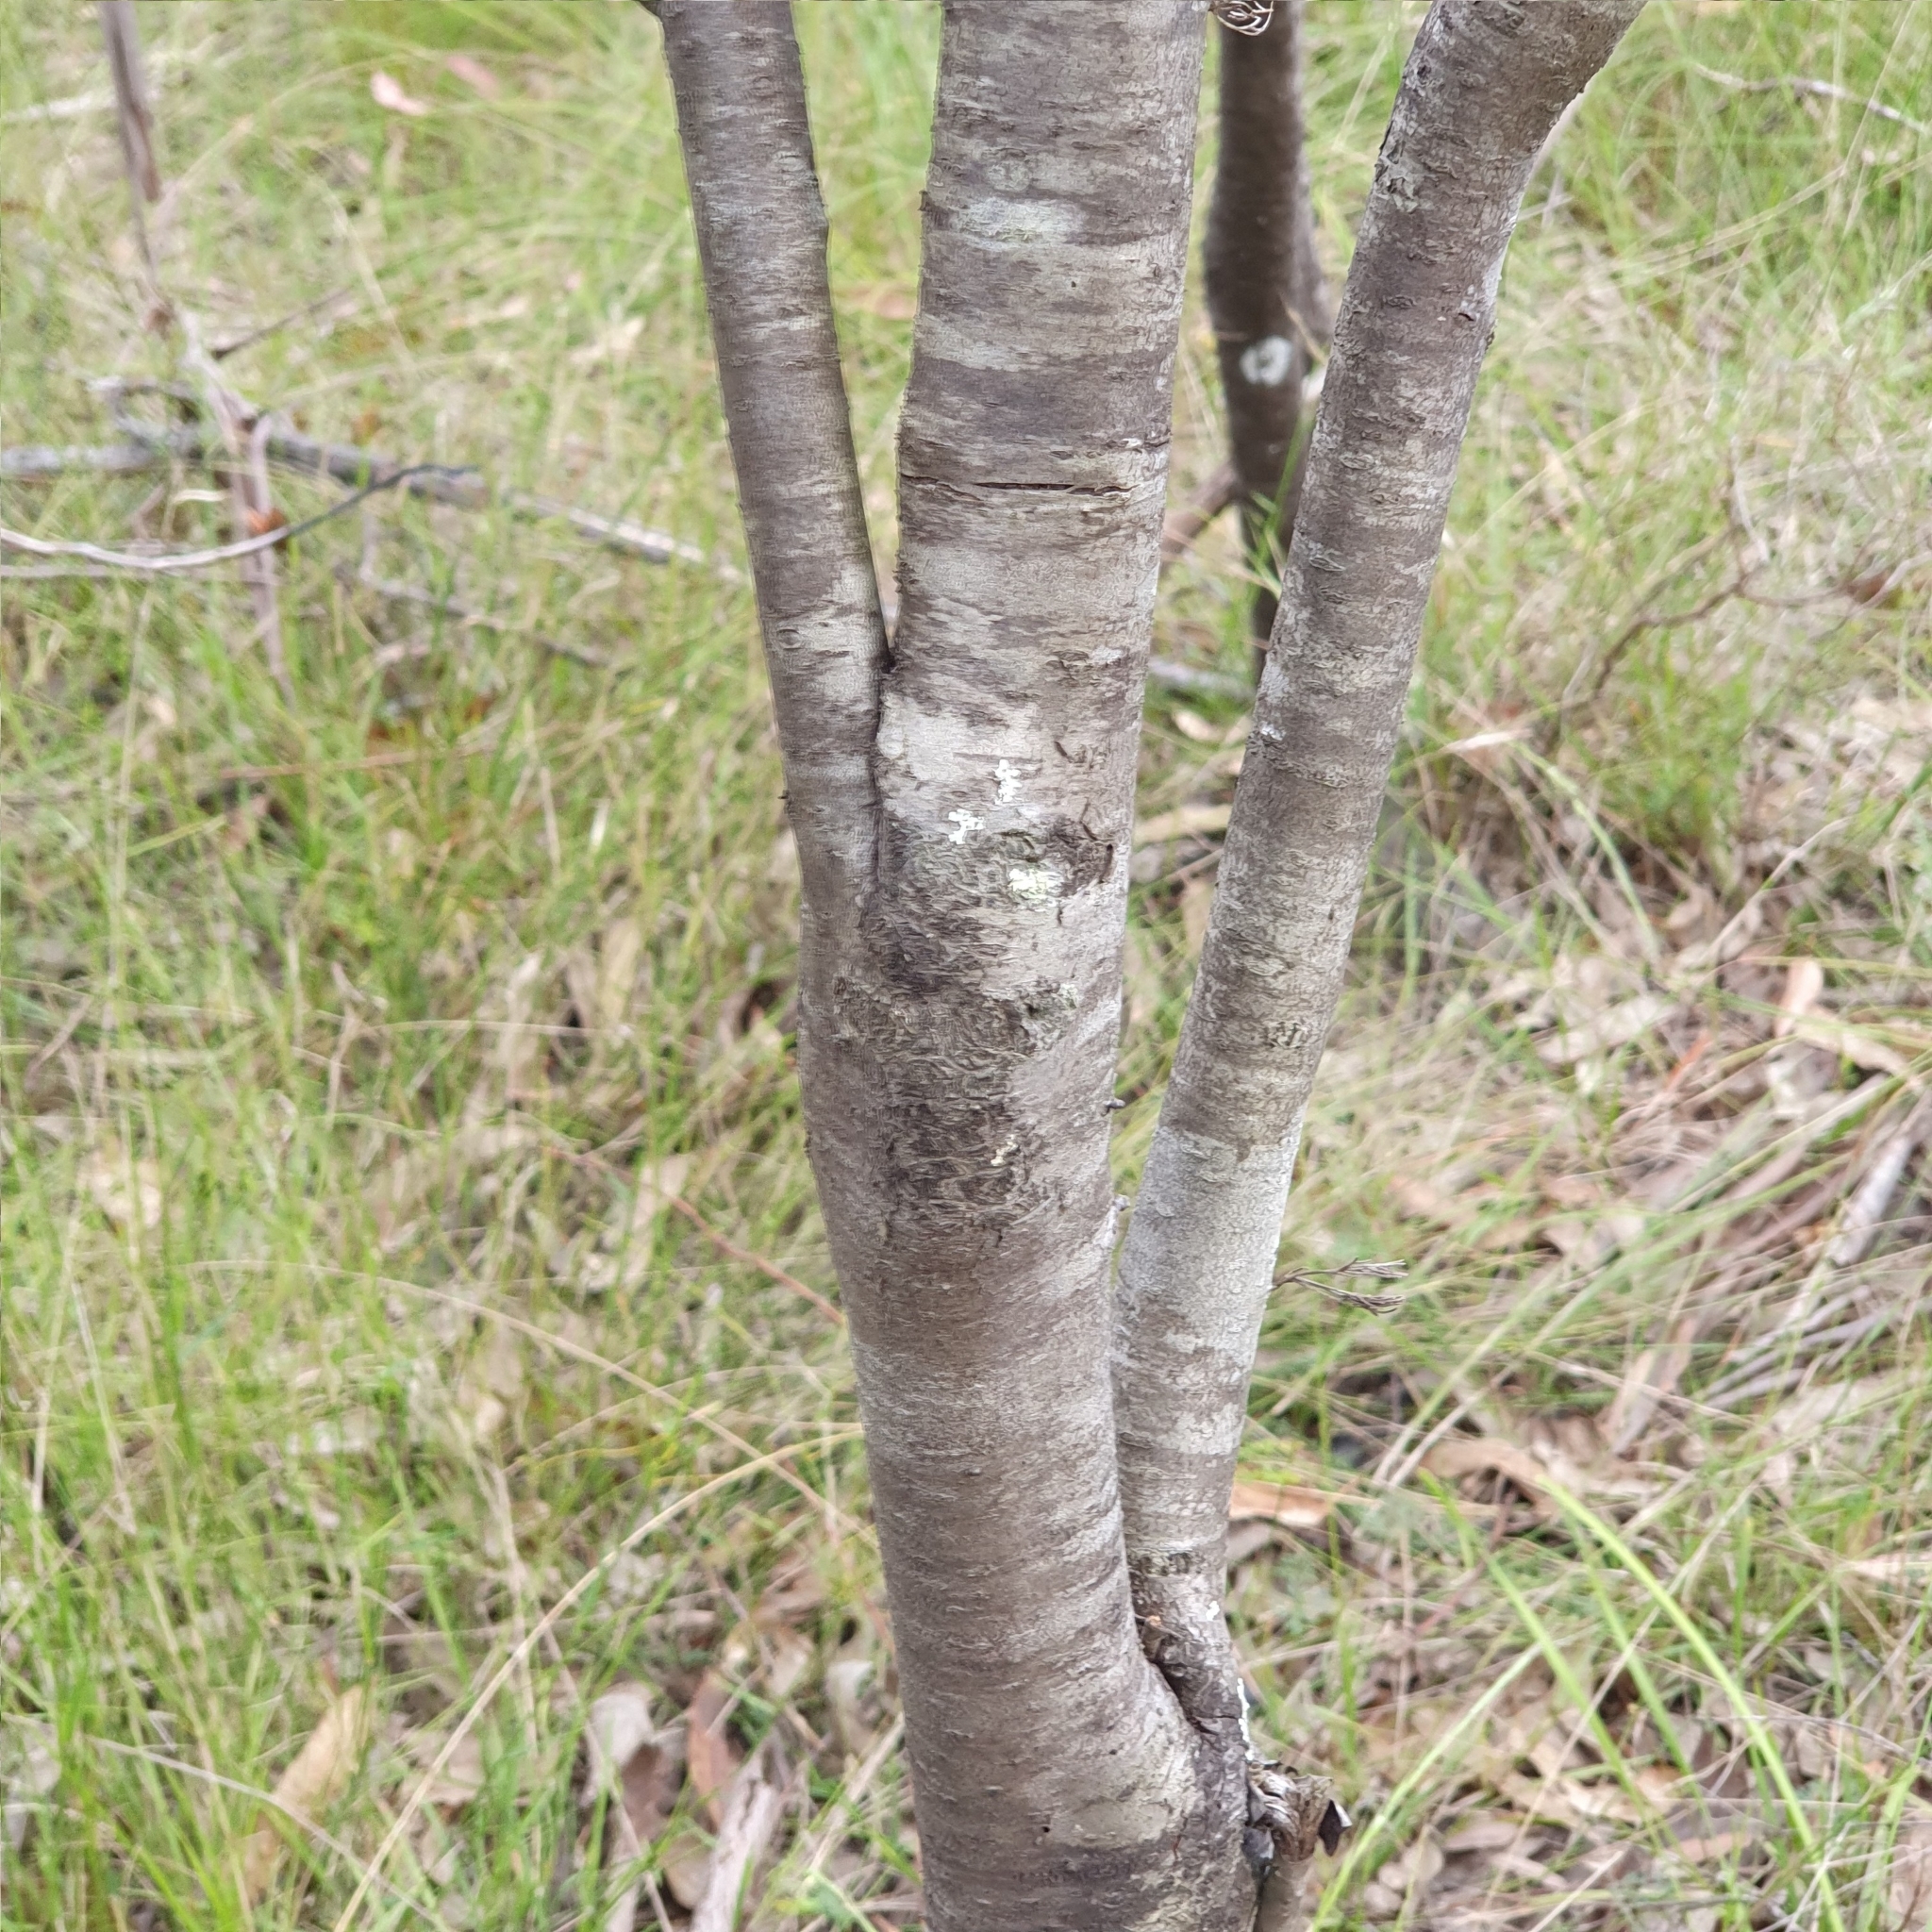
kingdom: Plantae
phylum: Tracheophyta
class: Magnoliopsida
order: Proteales
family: Proteaceae
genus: Petrophile
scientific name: Petrophile pulchella
